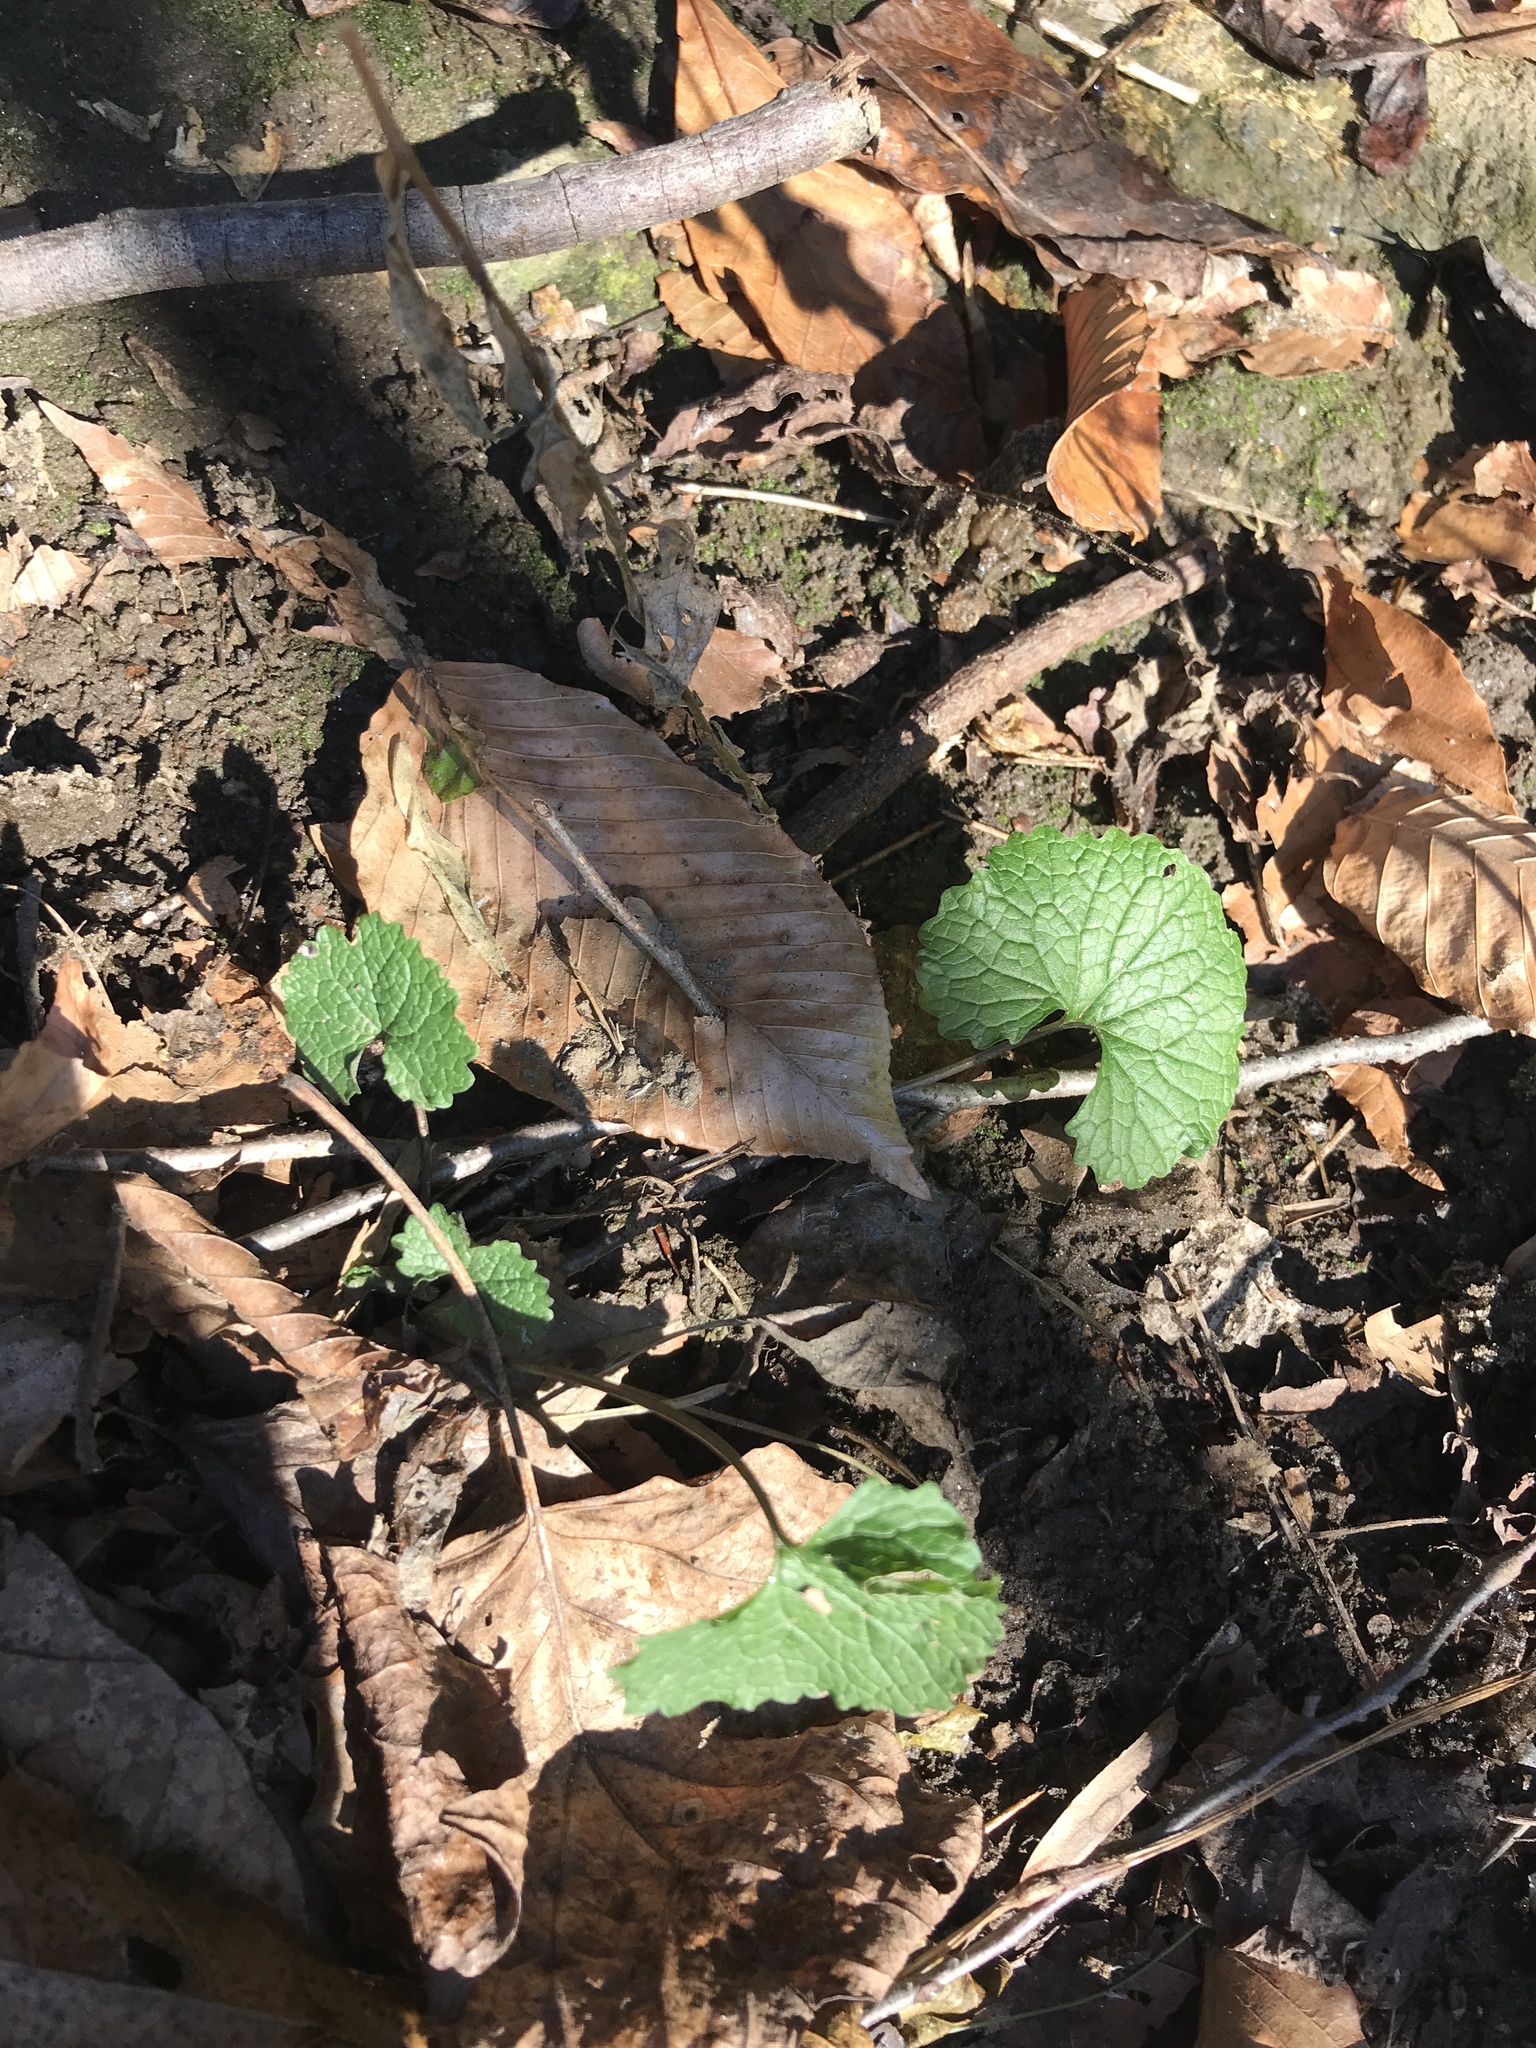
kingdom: Plantae
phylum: Tracheophyta
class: Magnoliopsida
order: Brassicales
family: Brassicaceae
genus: Alliaria
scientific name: Alliaria petiolata
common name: Garlic mustard
